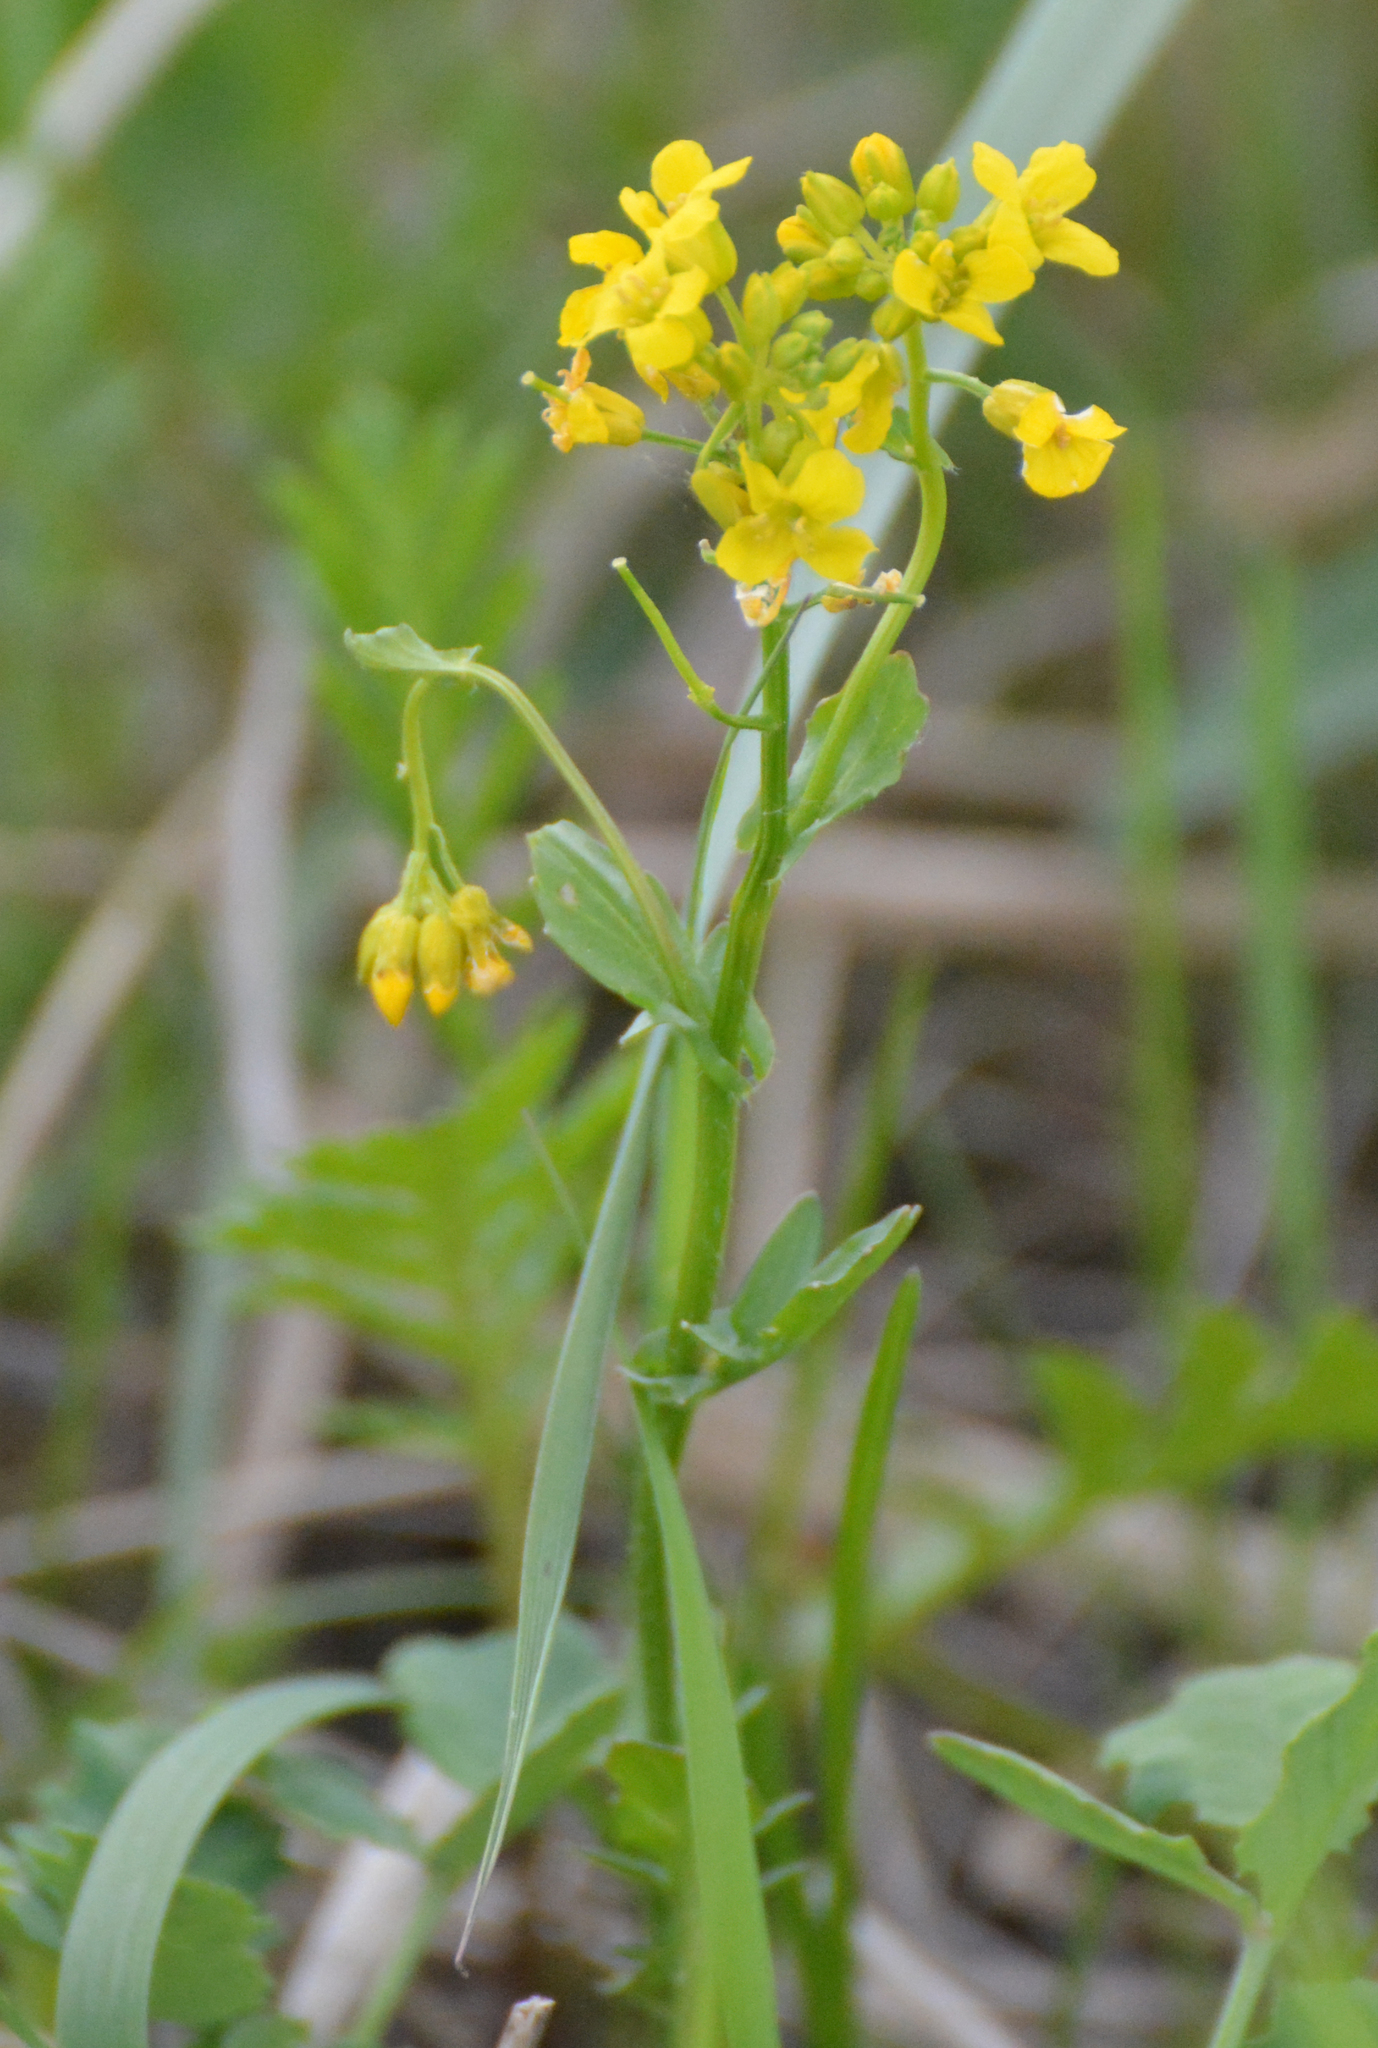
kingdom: Plantae
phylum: Tracheophyta
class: Magnoliopsida
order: Brassicales
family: Brassicaceae
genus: Barbarea
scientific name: Barbarea vulgaris
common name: Cressy-greens
